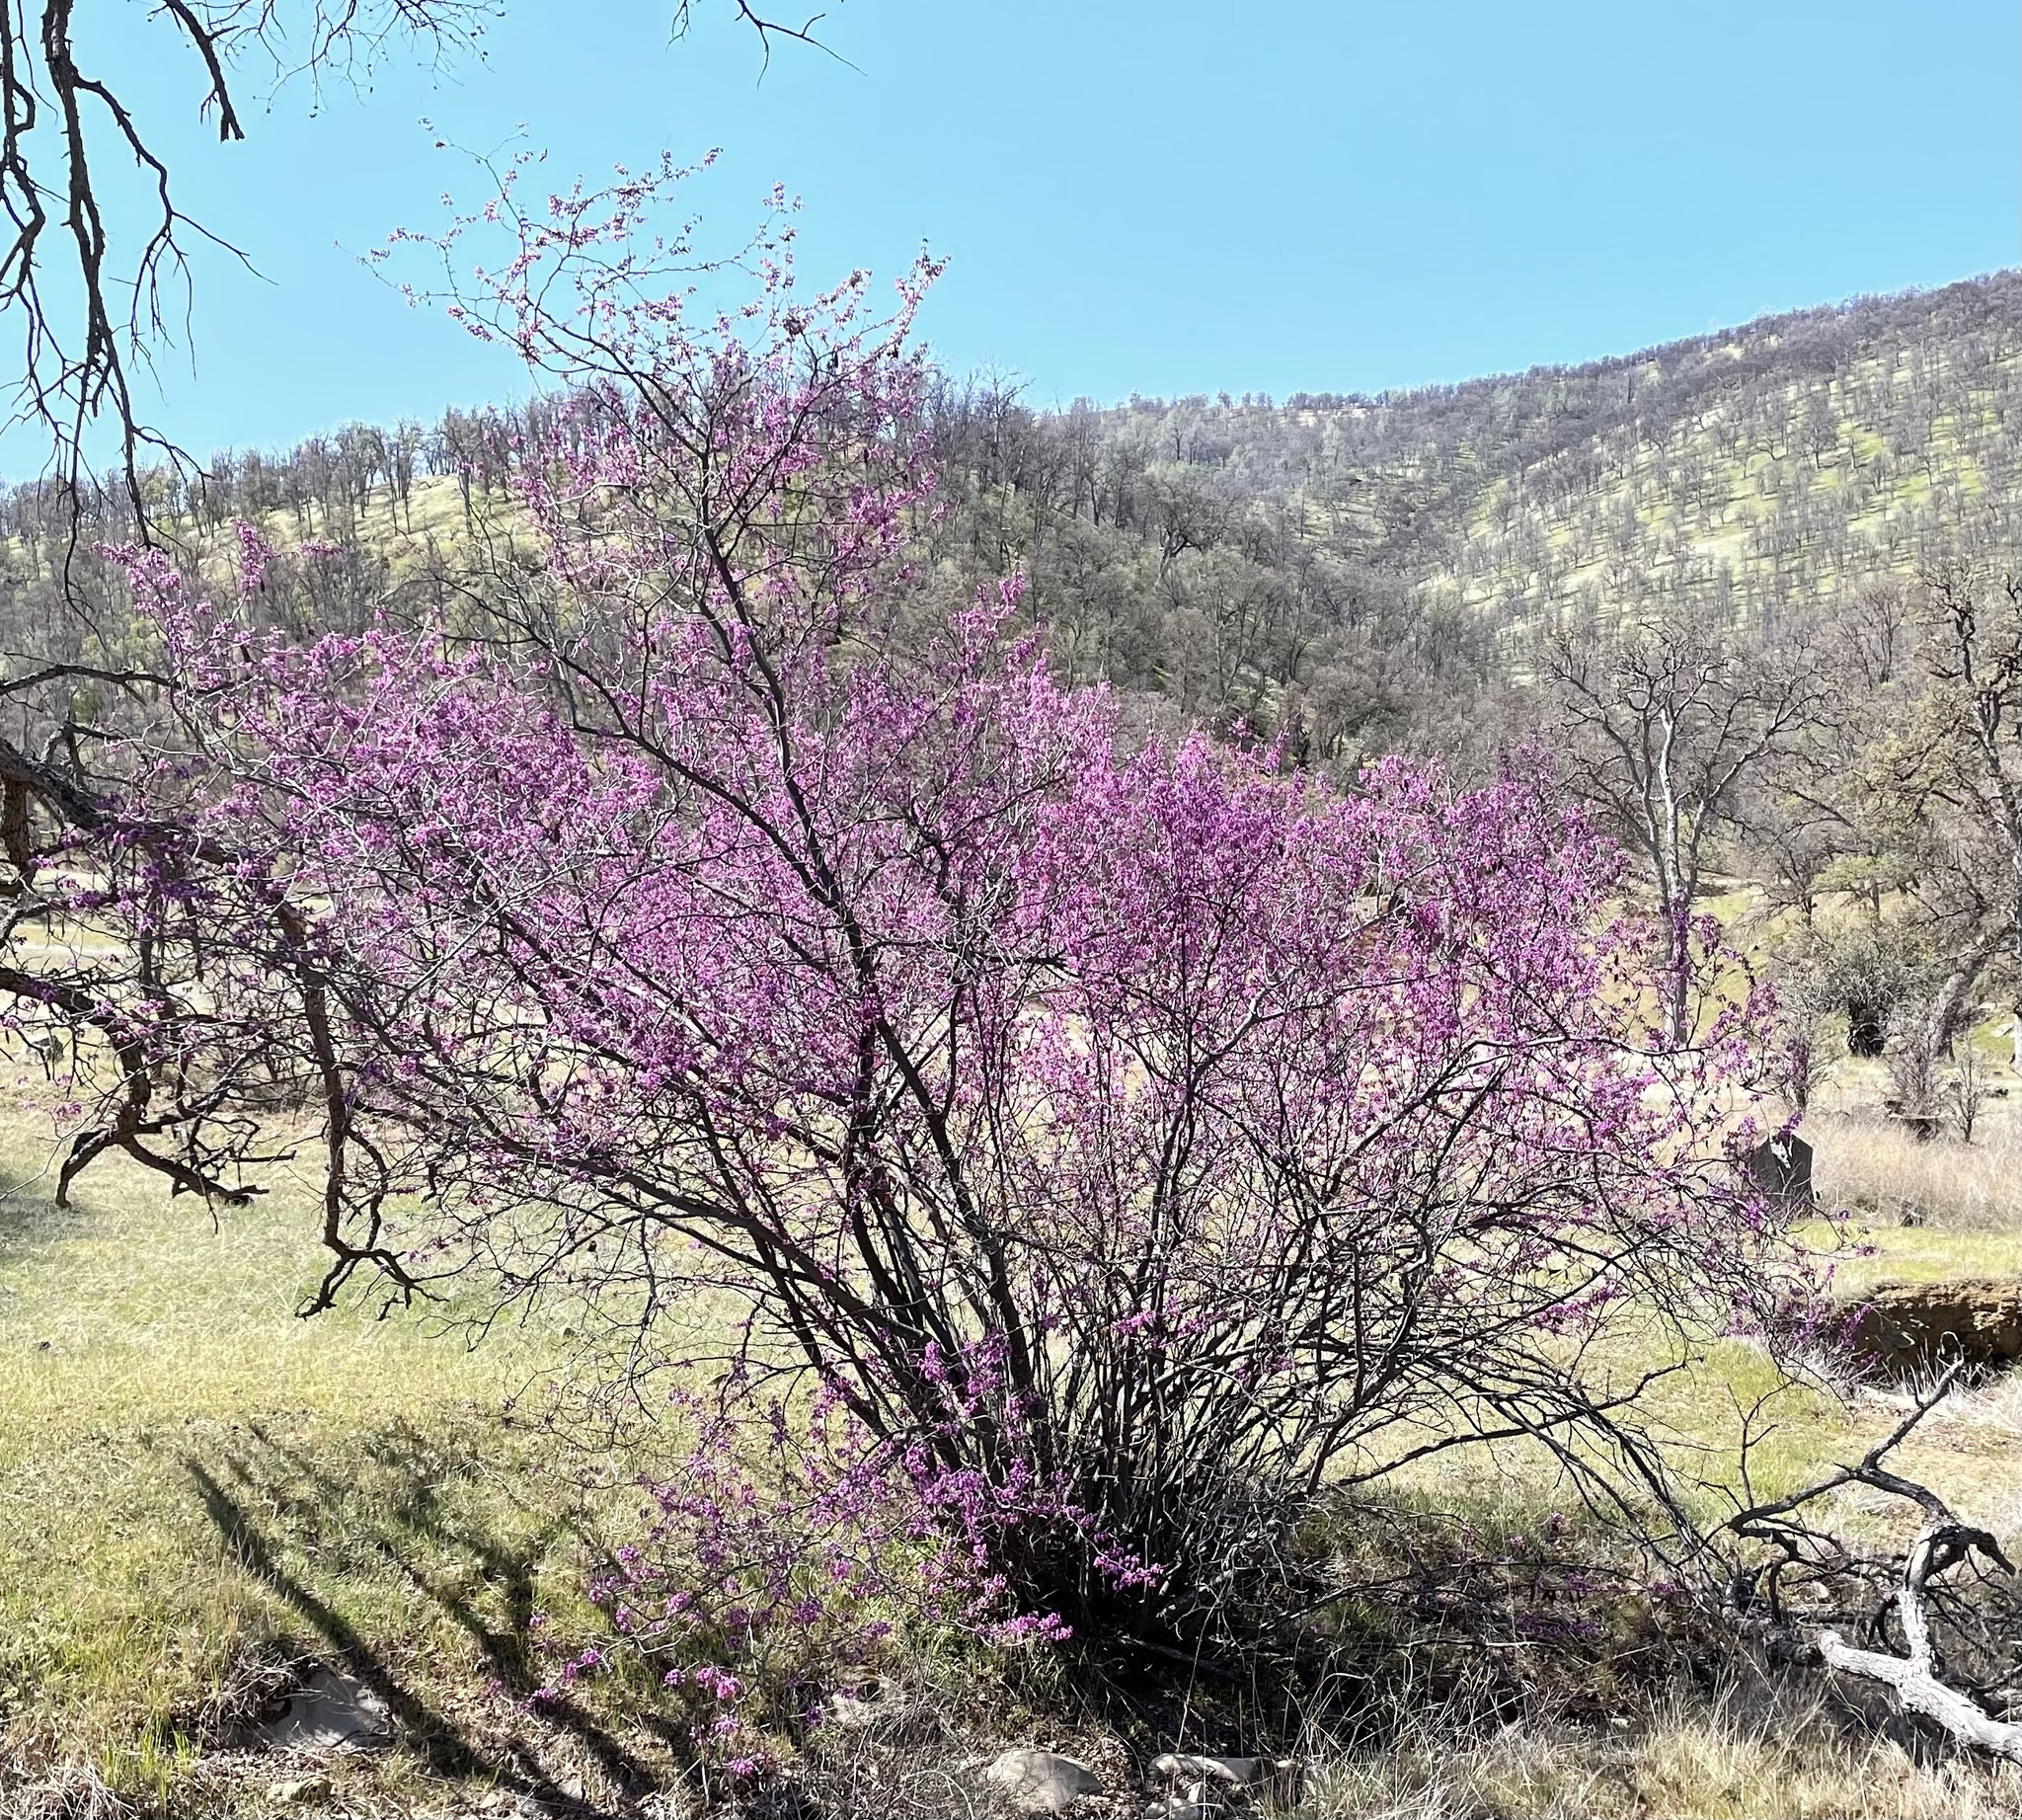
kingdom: Plantae
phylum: Tracheophyta
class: Magnoliopsida
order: Fabales
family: Fabaceae
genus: Cercis
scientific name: Cercis occidentalis
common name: California redbud
